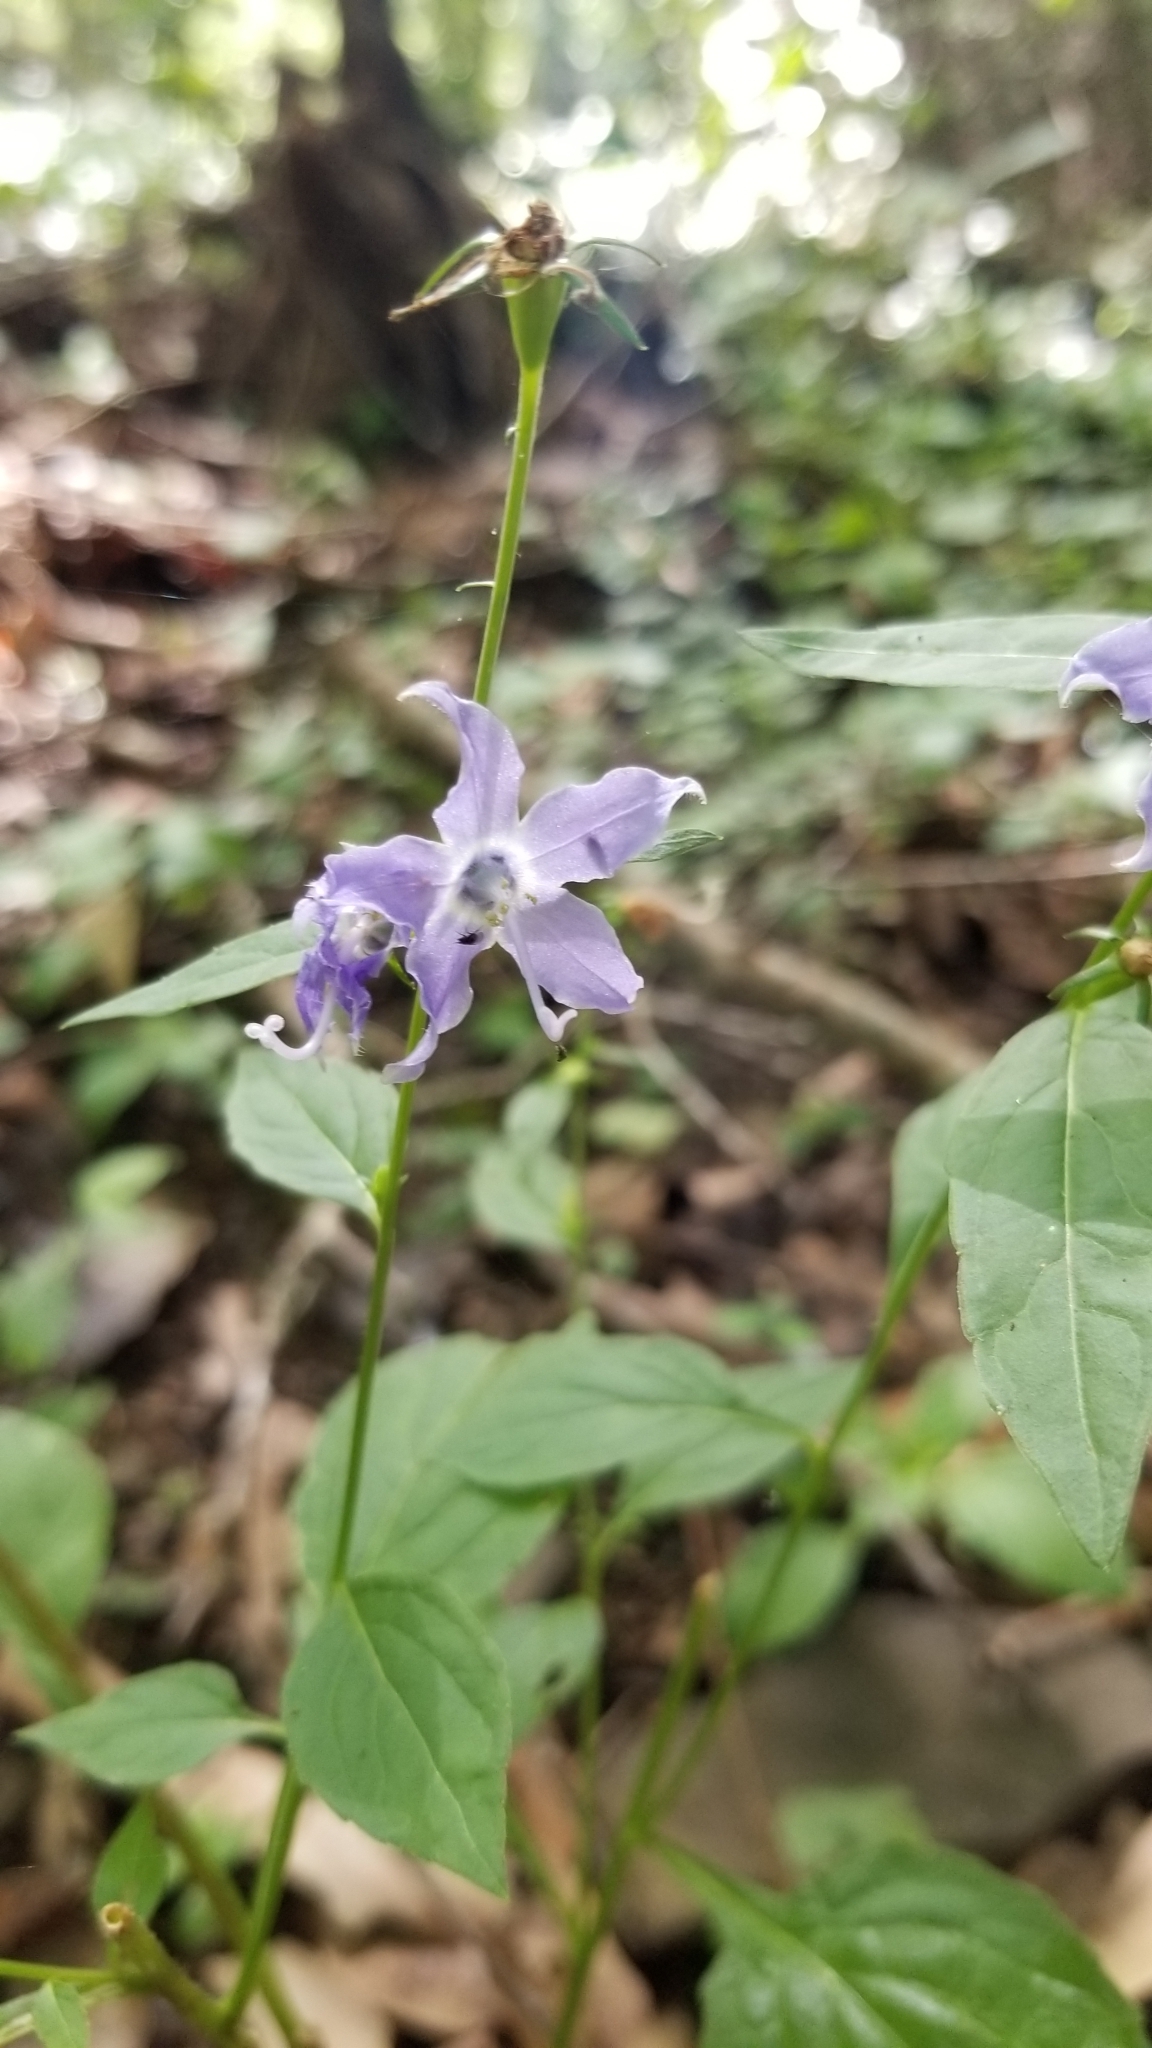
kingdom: Plantae
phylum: Tracheophyta
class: Magnoliopsida
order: Asterales
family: Campanulaceae
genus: Campanulastrum
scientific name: Campanulastrum americanum
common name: American bellflower
